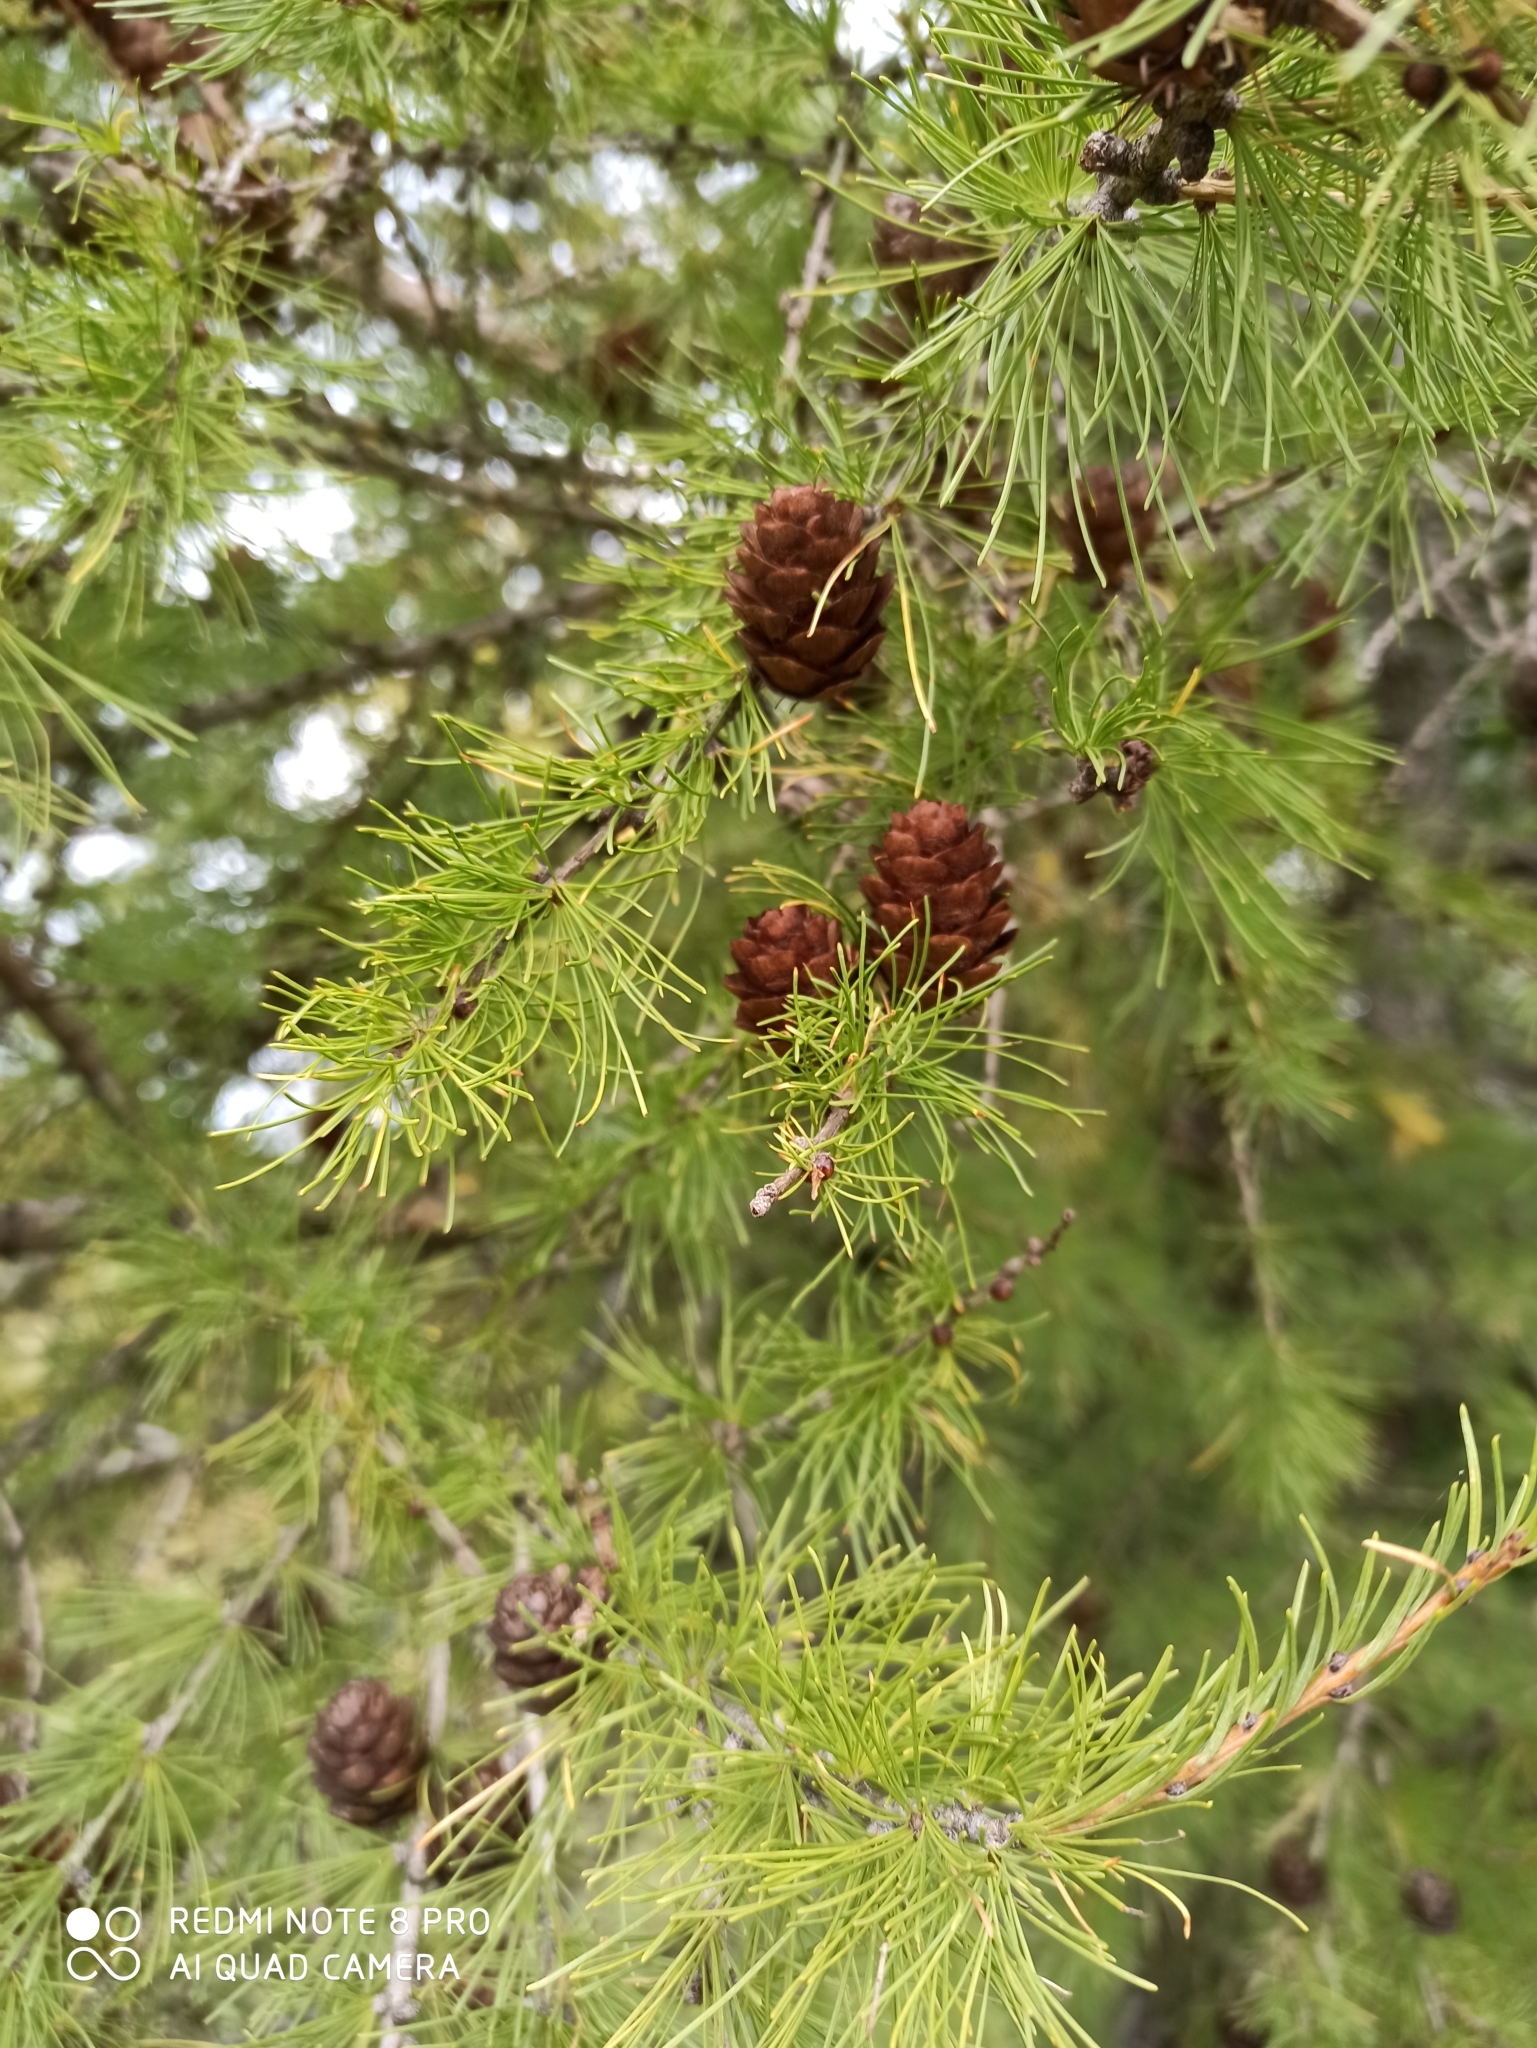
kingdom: Plantae
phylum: Tracheophyta
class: Pinopsida
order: Pinales
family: Pinaceae
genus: Larix
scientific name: Larix sibirica
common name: Siberian larch
